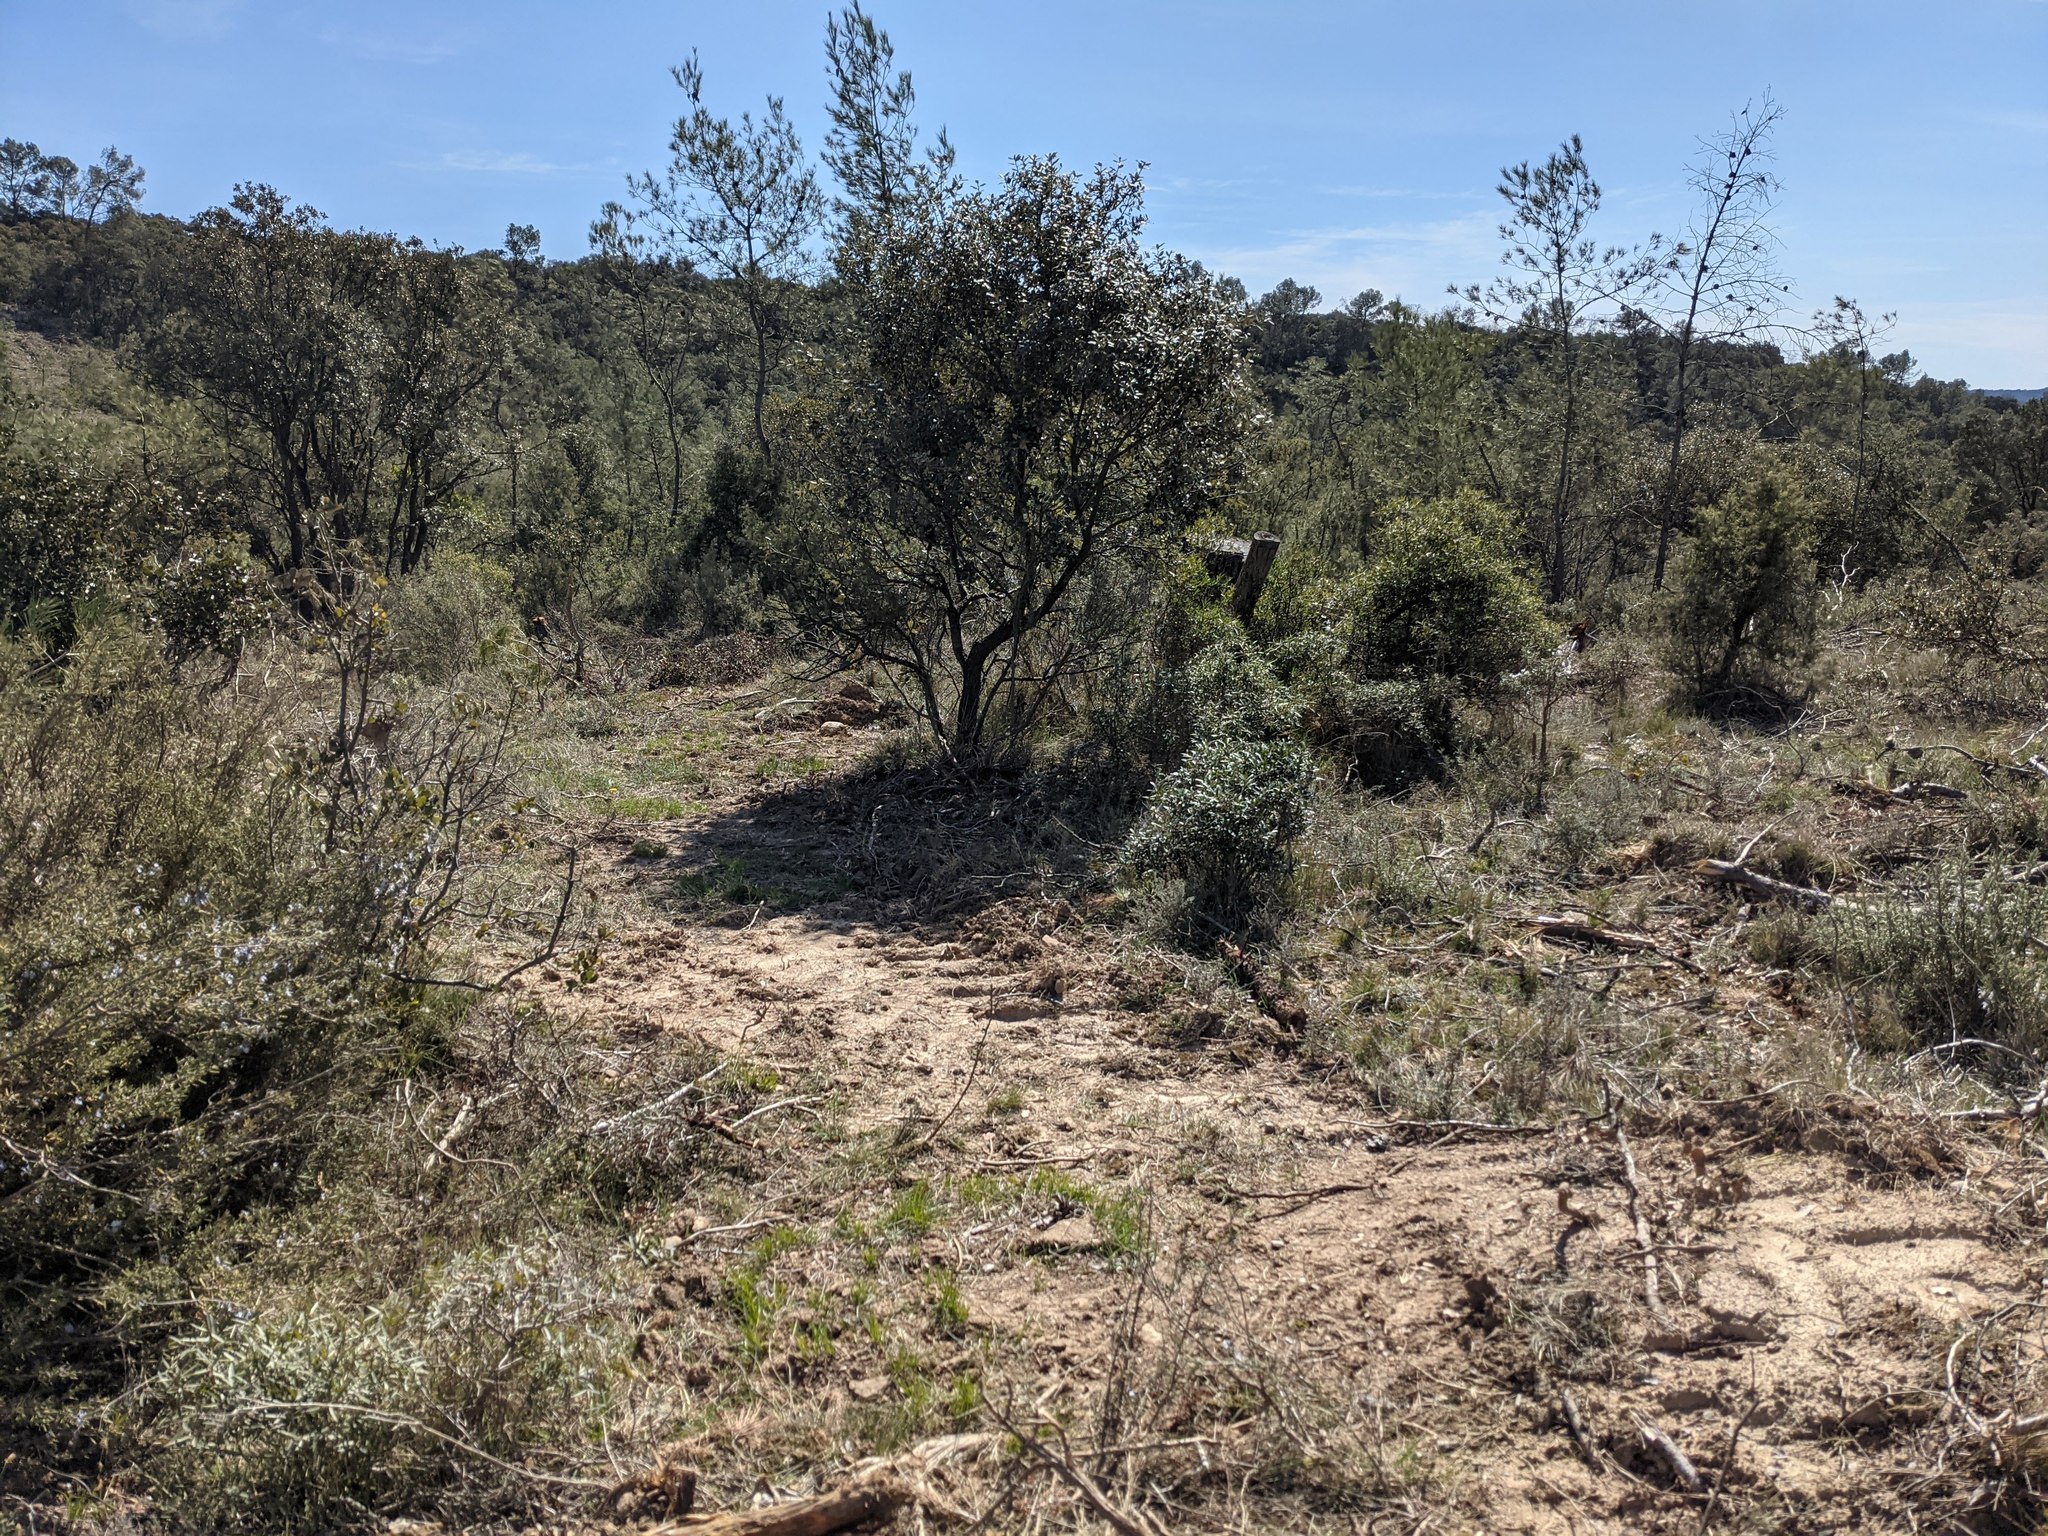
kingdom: Plantae
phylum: Tracheophyta
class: Liliopsida
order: Asparagales
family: Orchidaceae
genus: Orchis
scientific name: Orchis provincialis
